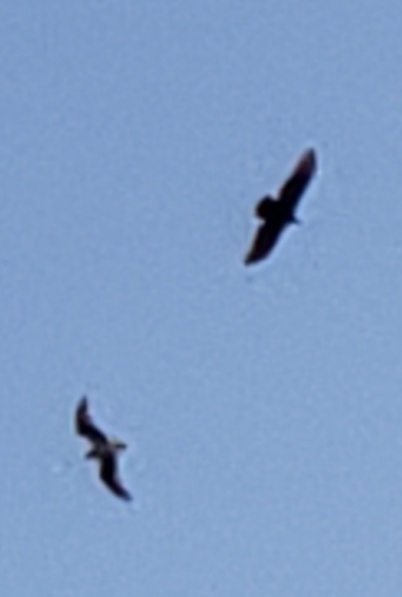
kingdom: Animalia
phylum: Chordata
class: Aves
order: Accipitriformes
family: Cathartidae
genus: Cathartes
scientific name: Cathartes aura
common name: Turkey vulture
